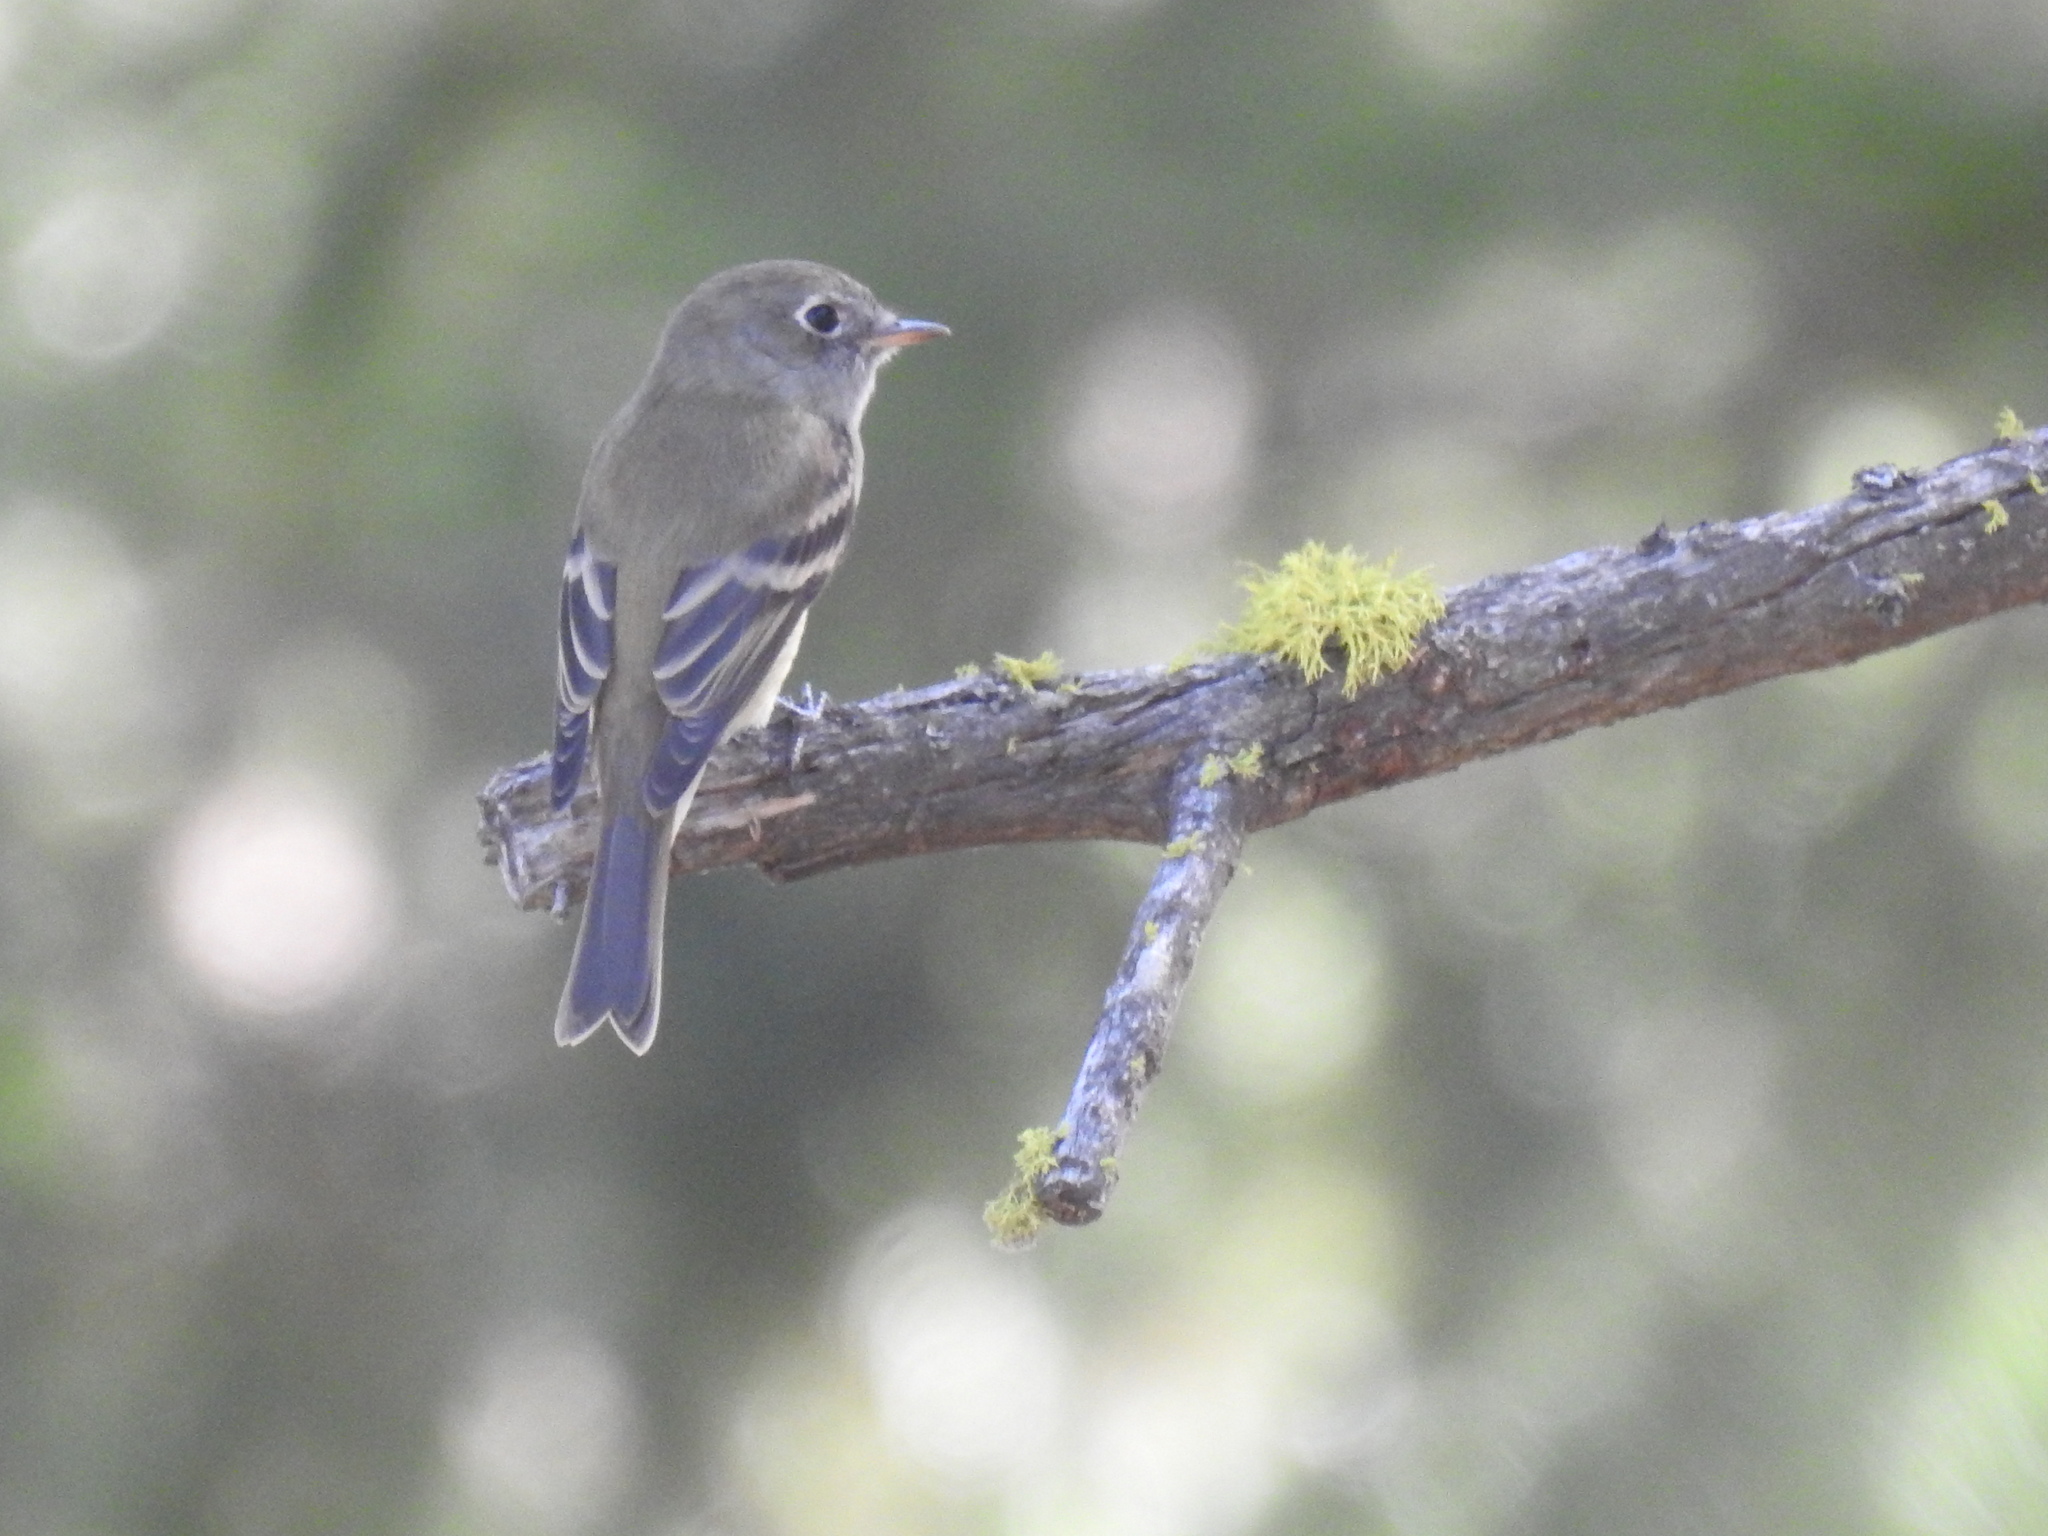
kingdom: Animalia
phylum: Chordata
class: Aves
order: Passeriformes
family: Tyrannidae
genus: Empidonax
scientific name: Empidonax hammondii
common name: Hammond's flycatcher
